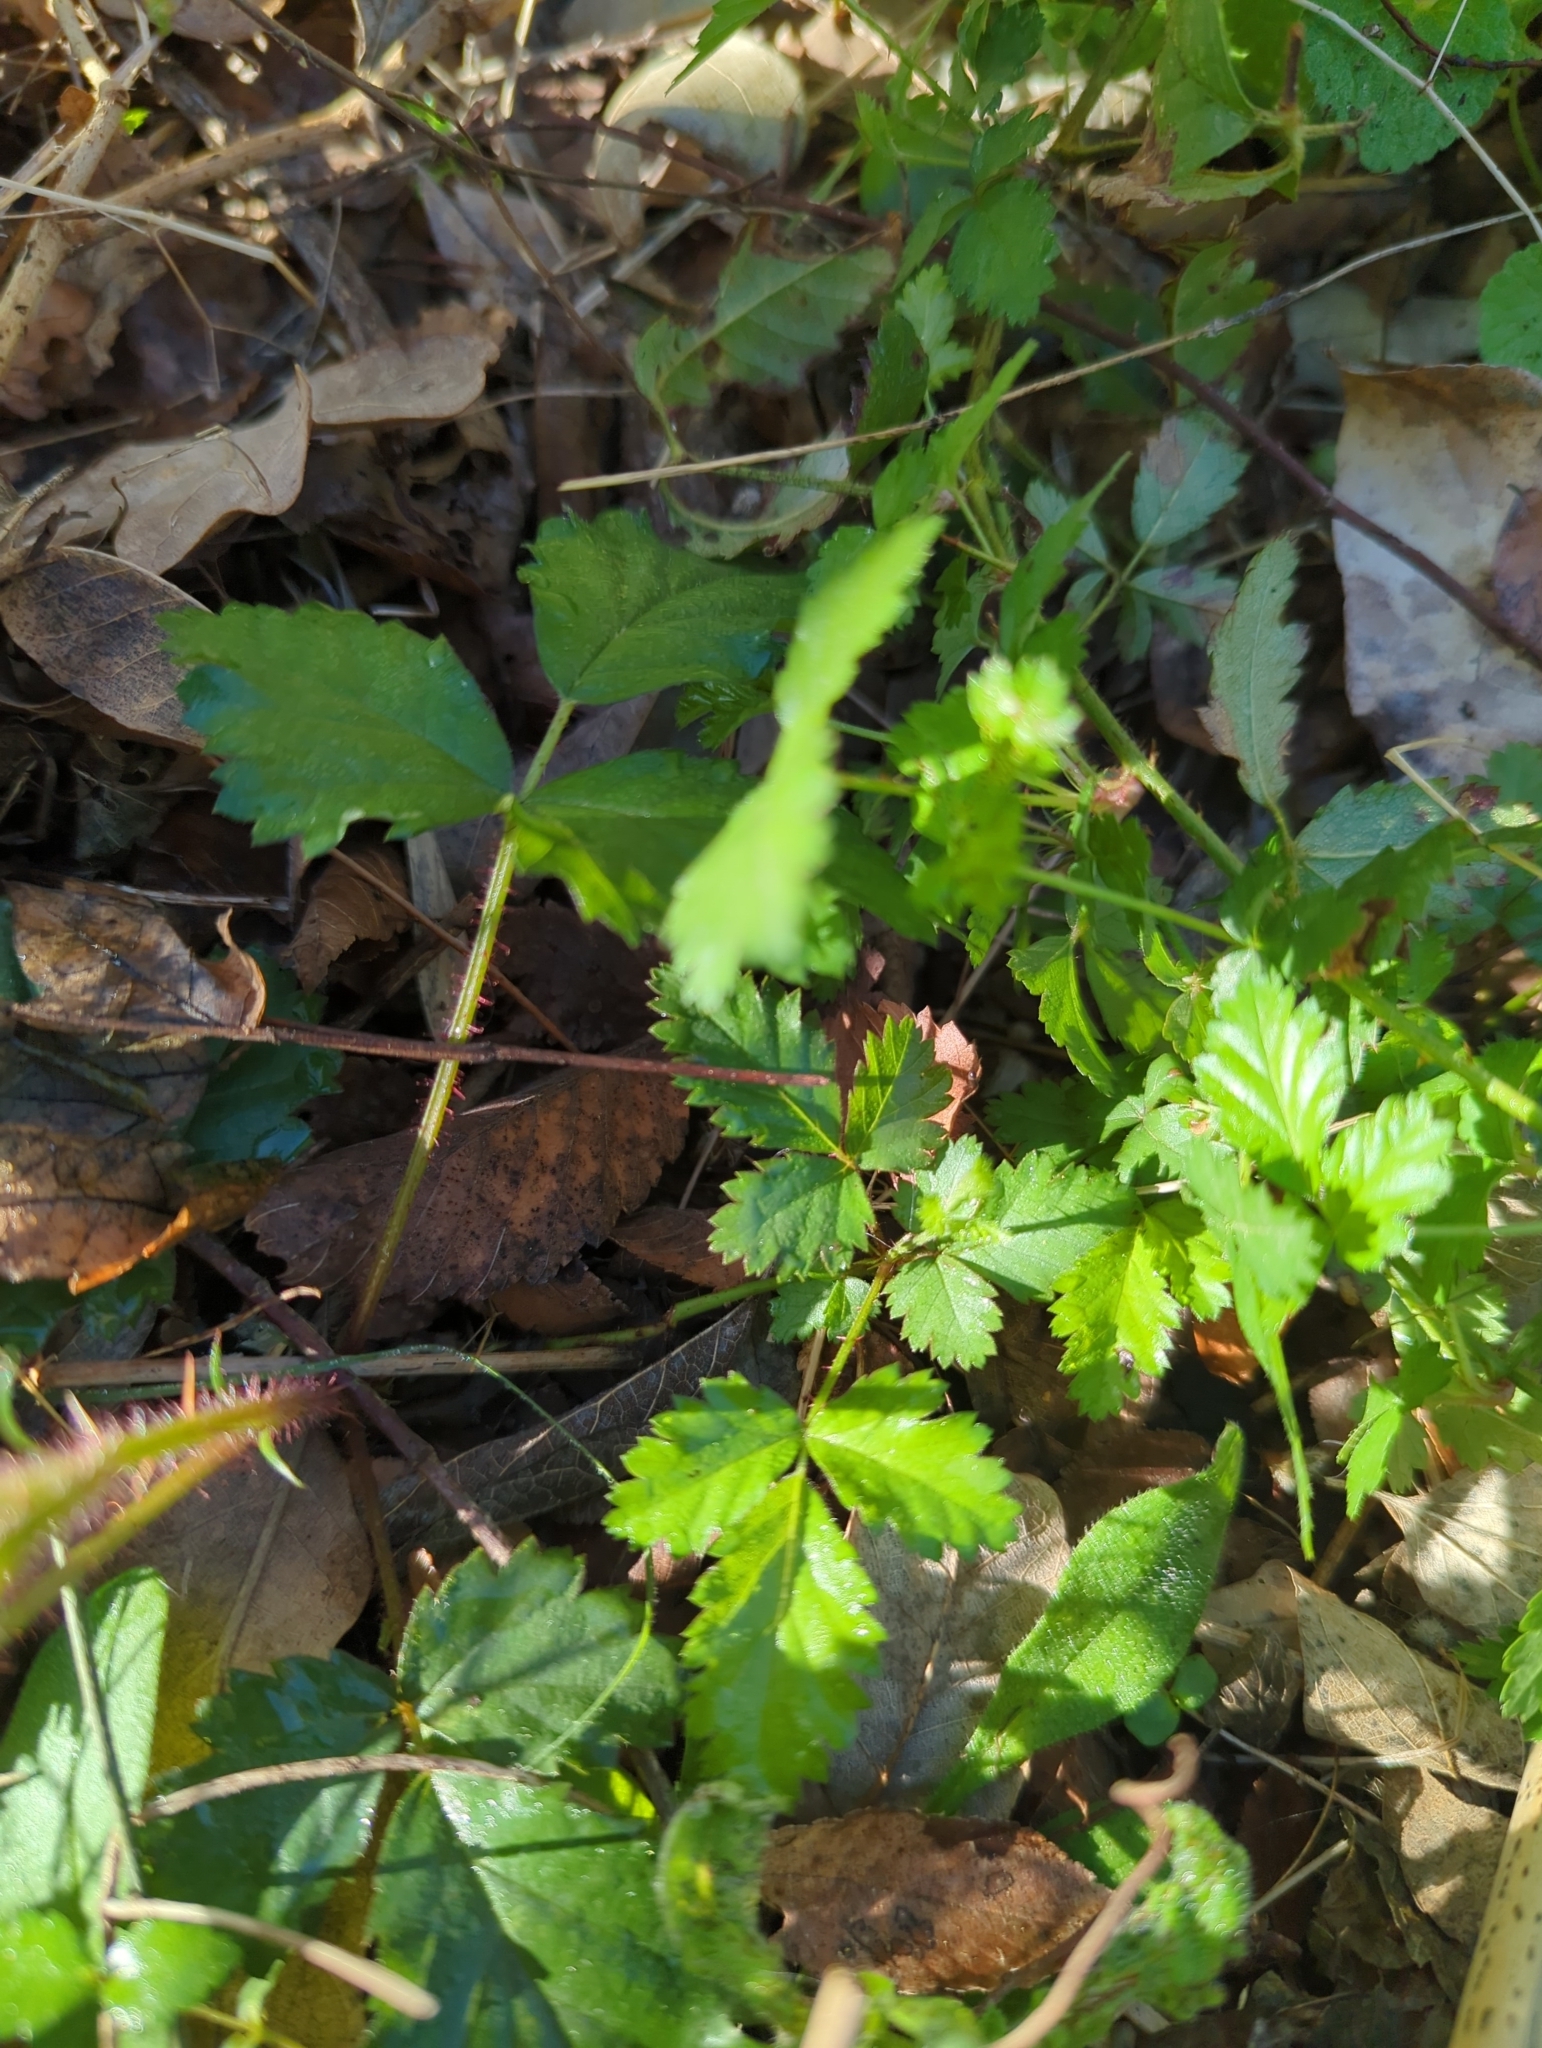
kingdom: Plantae
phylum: Tracheophyta
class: Magnoliopsida
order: Rosales
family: Rosaceae
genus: Rubus
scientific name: Rubus trivialis
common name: Southern dewberry
